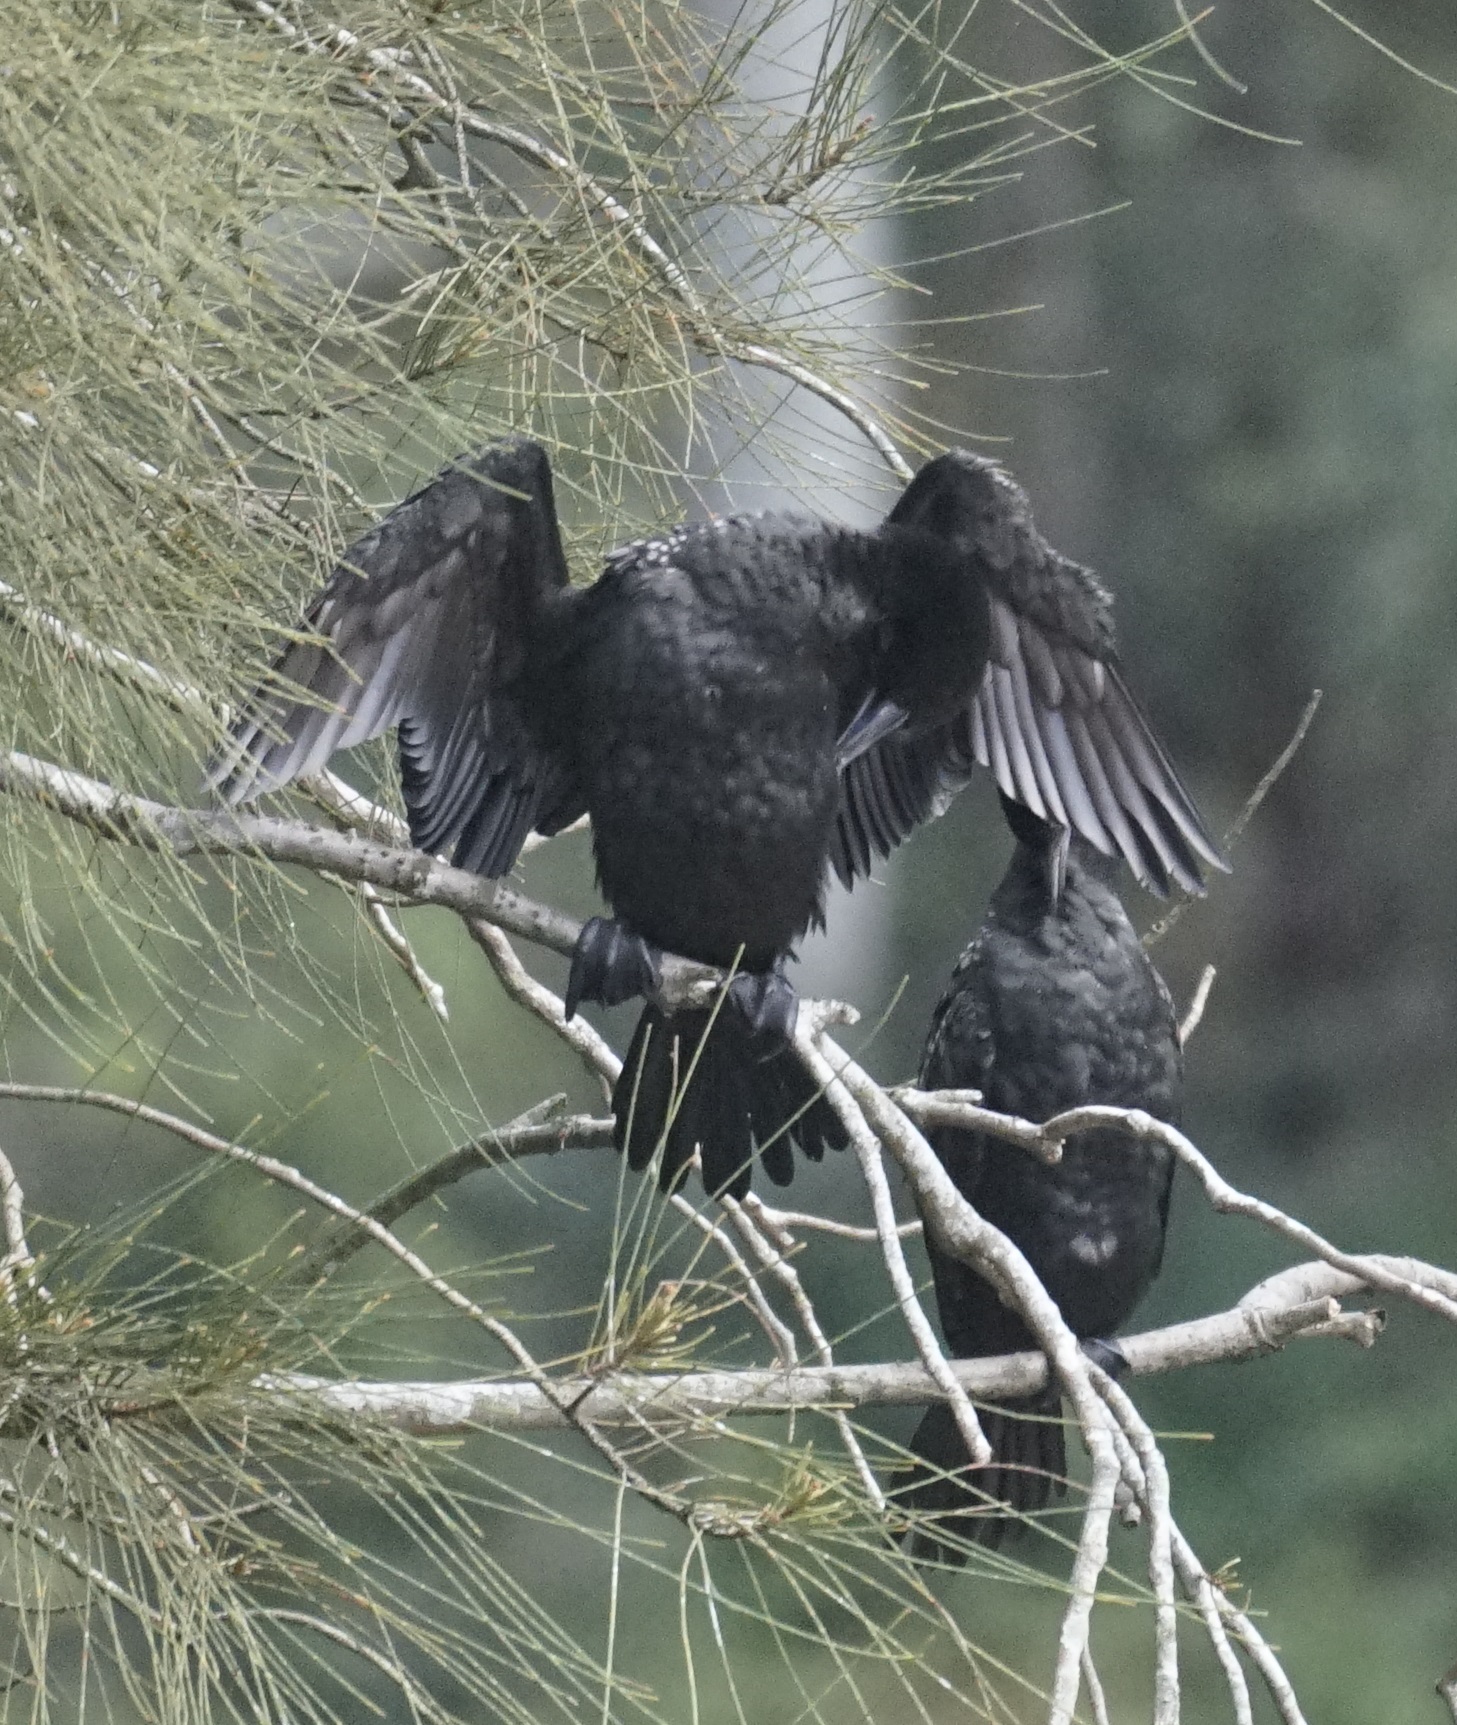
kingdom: Animalia
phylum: Chordata
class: Aves
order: Suliformes
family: Phalacrocoracidae
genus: Phalacrocorax
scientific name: Phalacrocorax sulcirostris
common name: Little black cormorant
